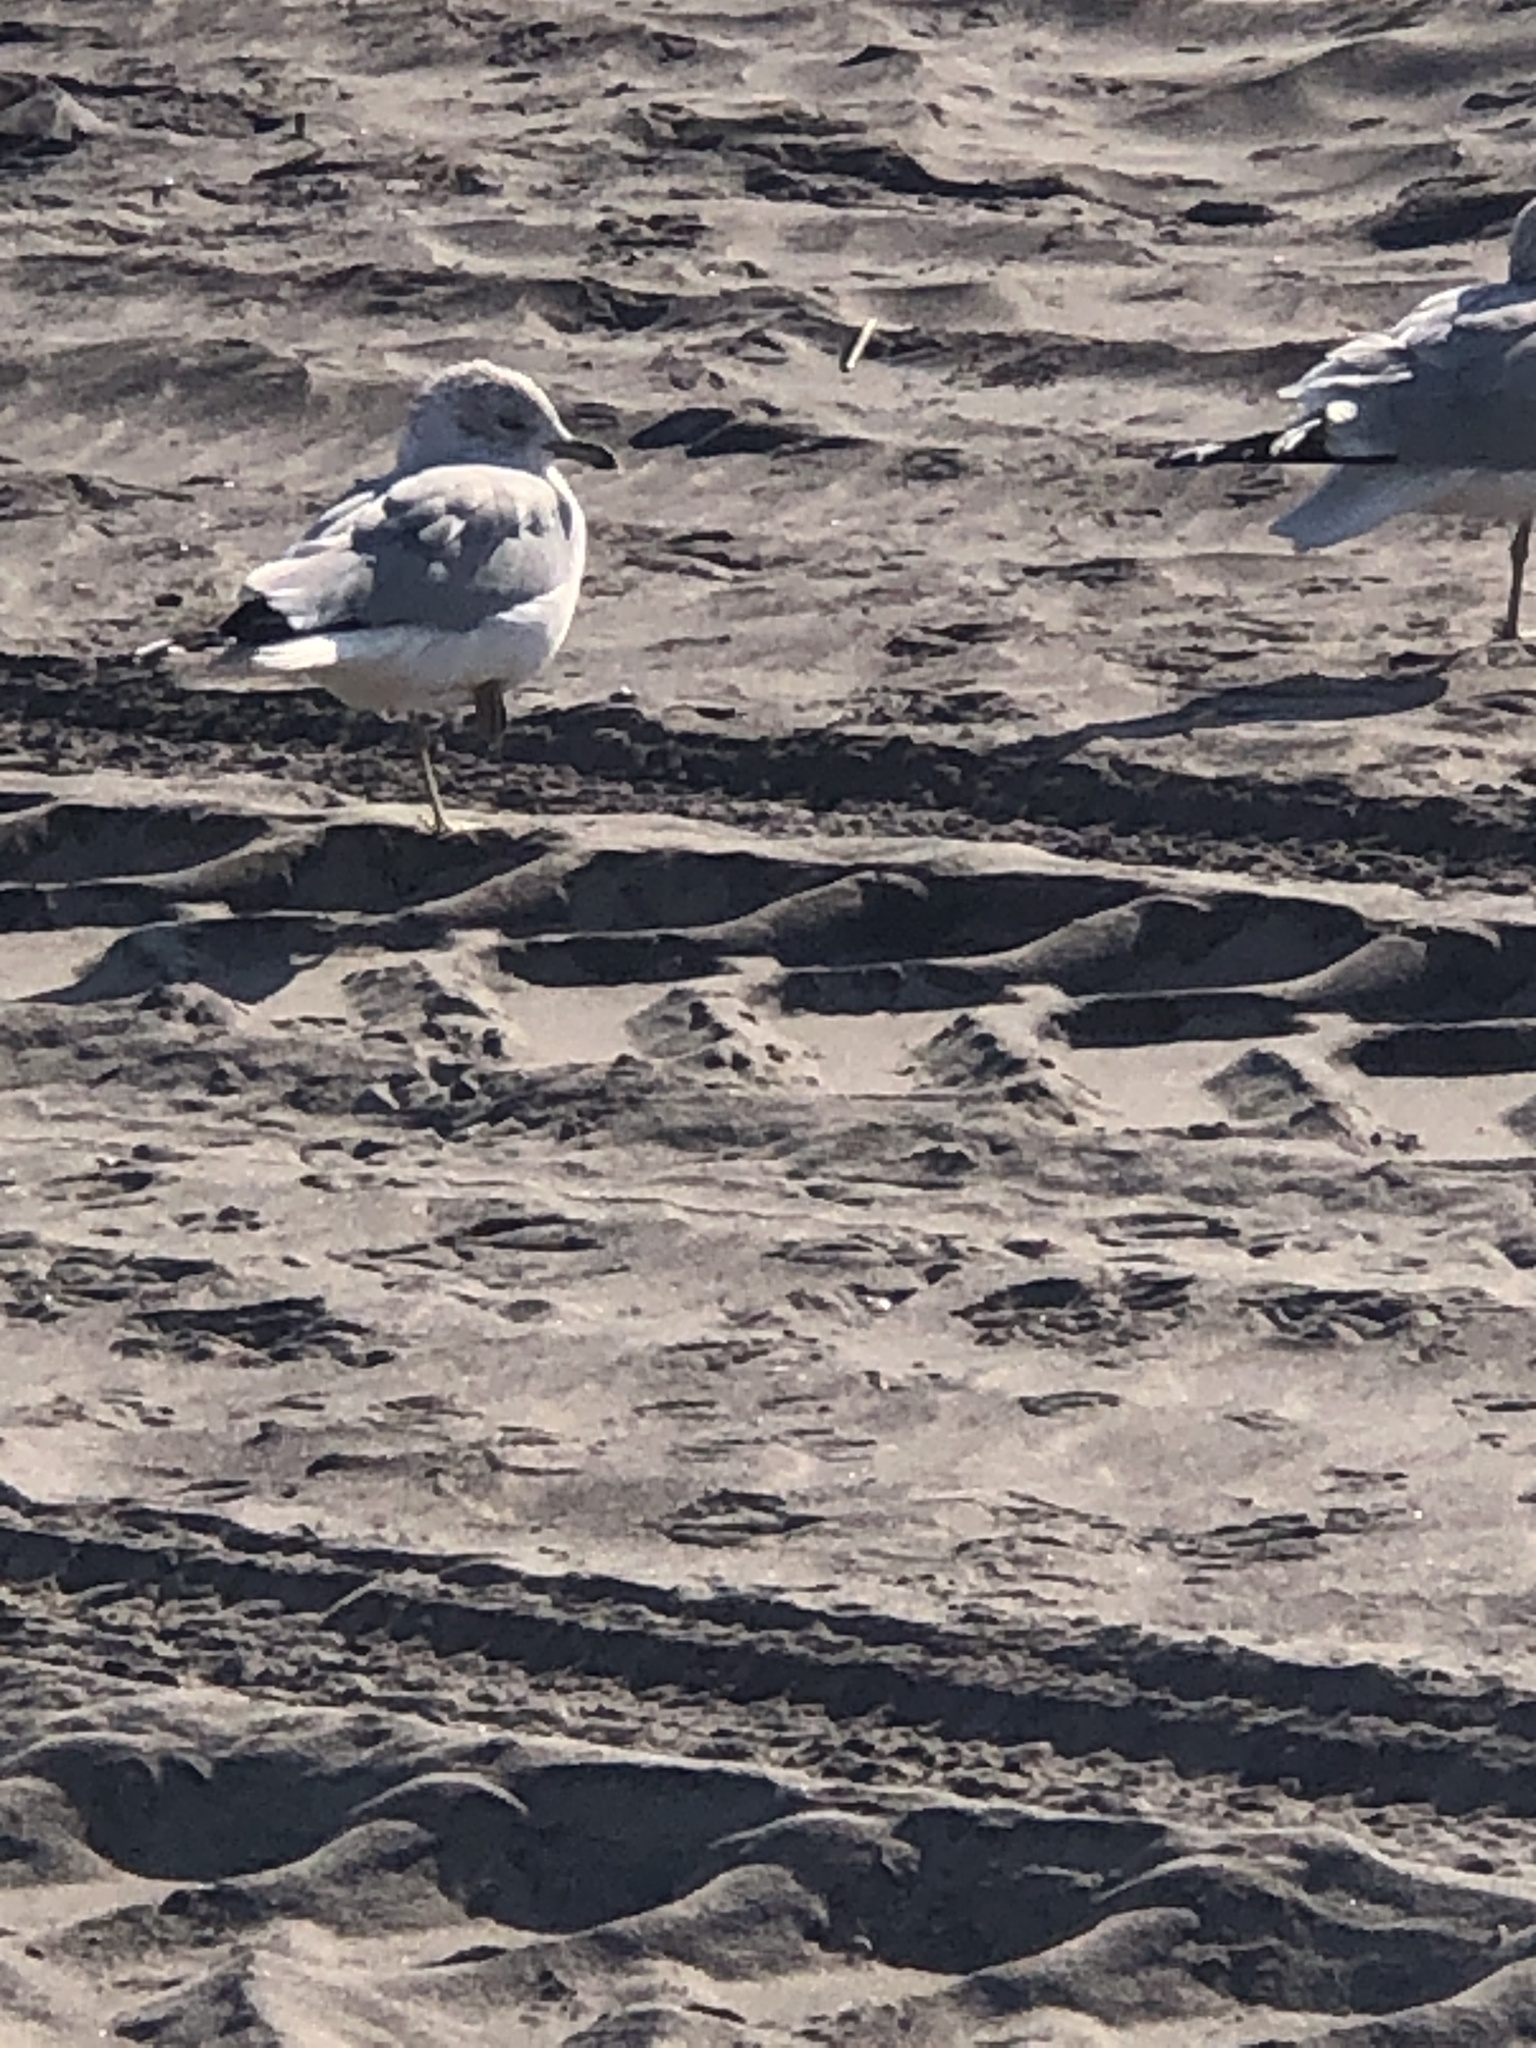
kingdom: Animalia
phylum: Chordata
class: Aves
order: Charadriiformes
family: Laridae
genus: Larus
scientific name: Larus delawarensis
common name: Ring-billed gull
